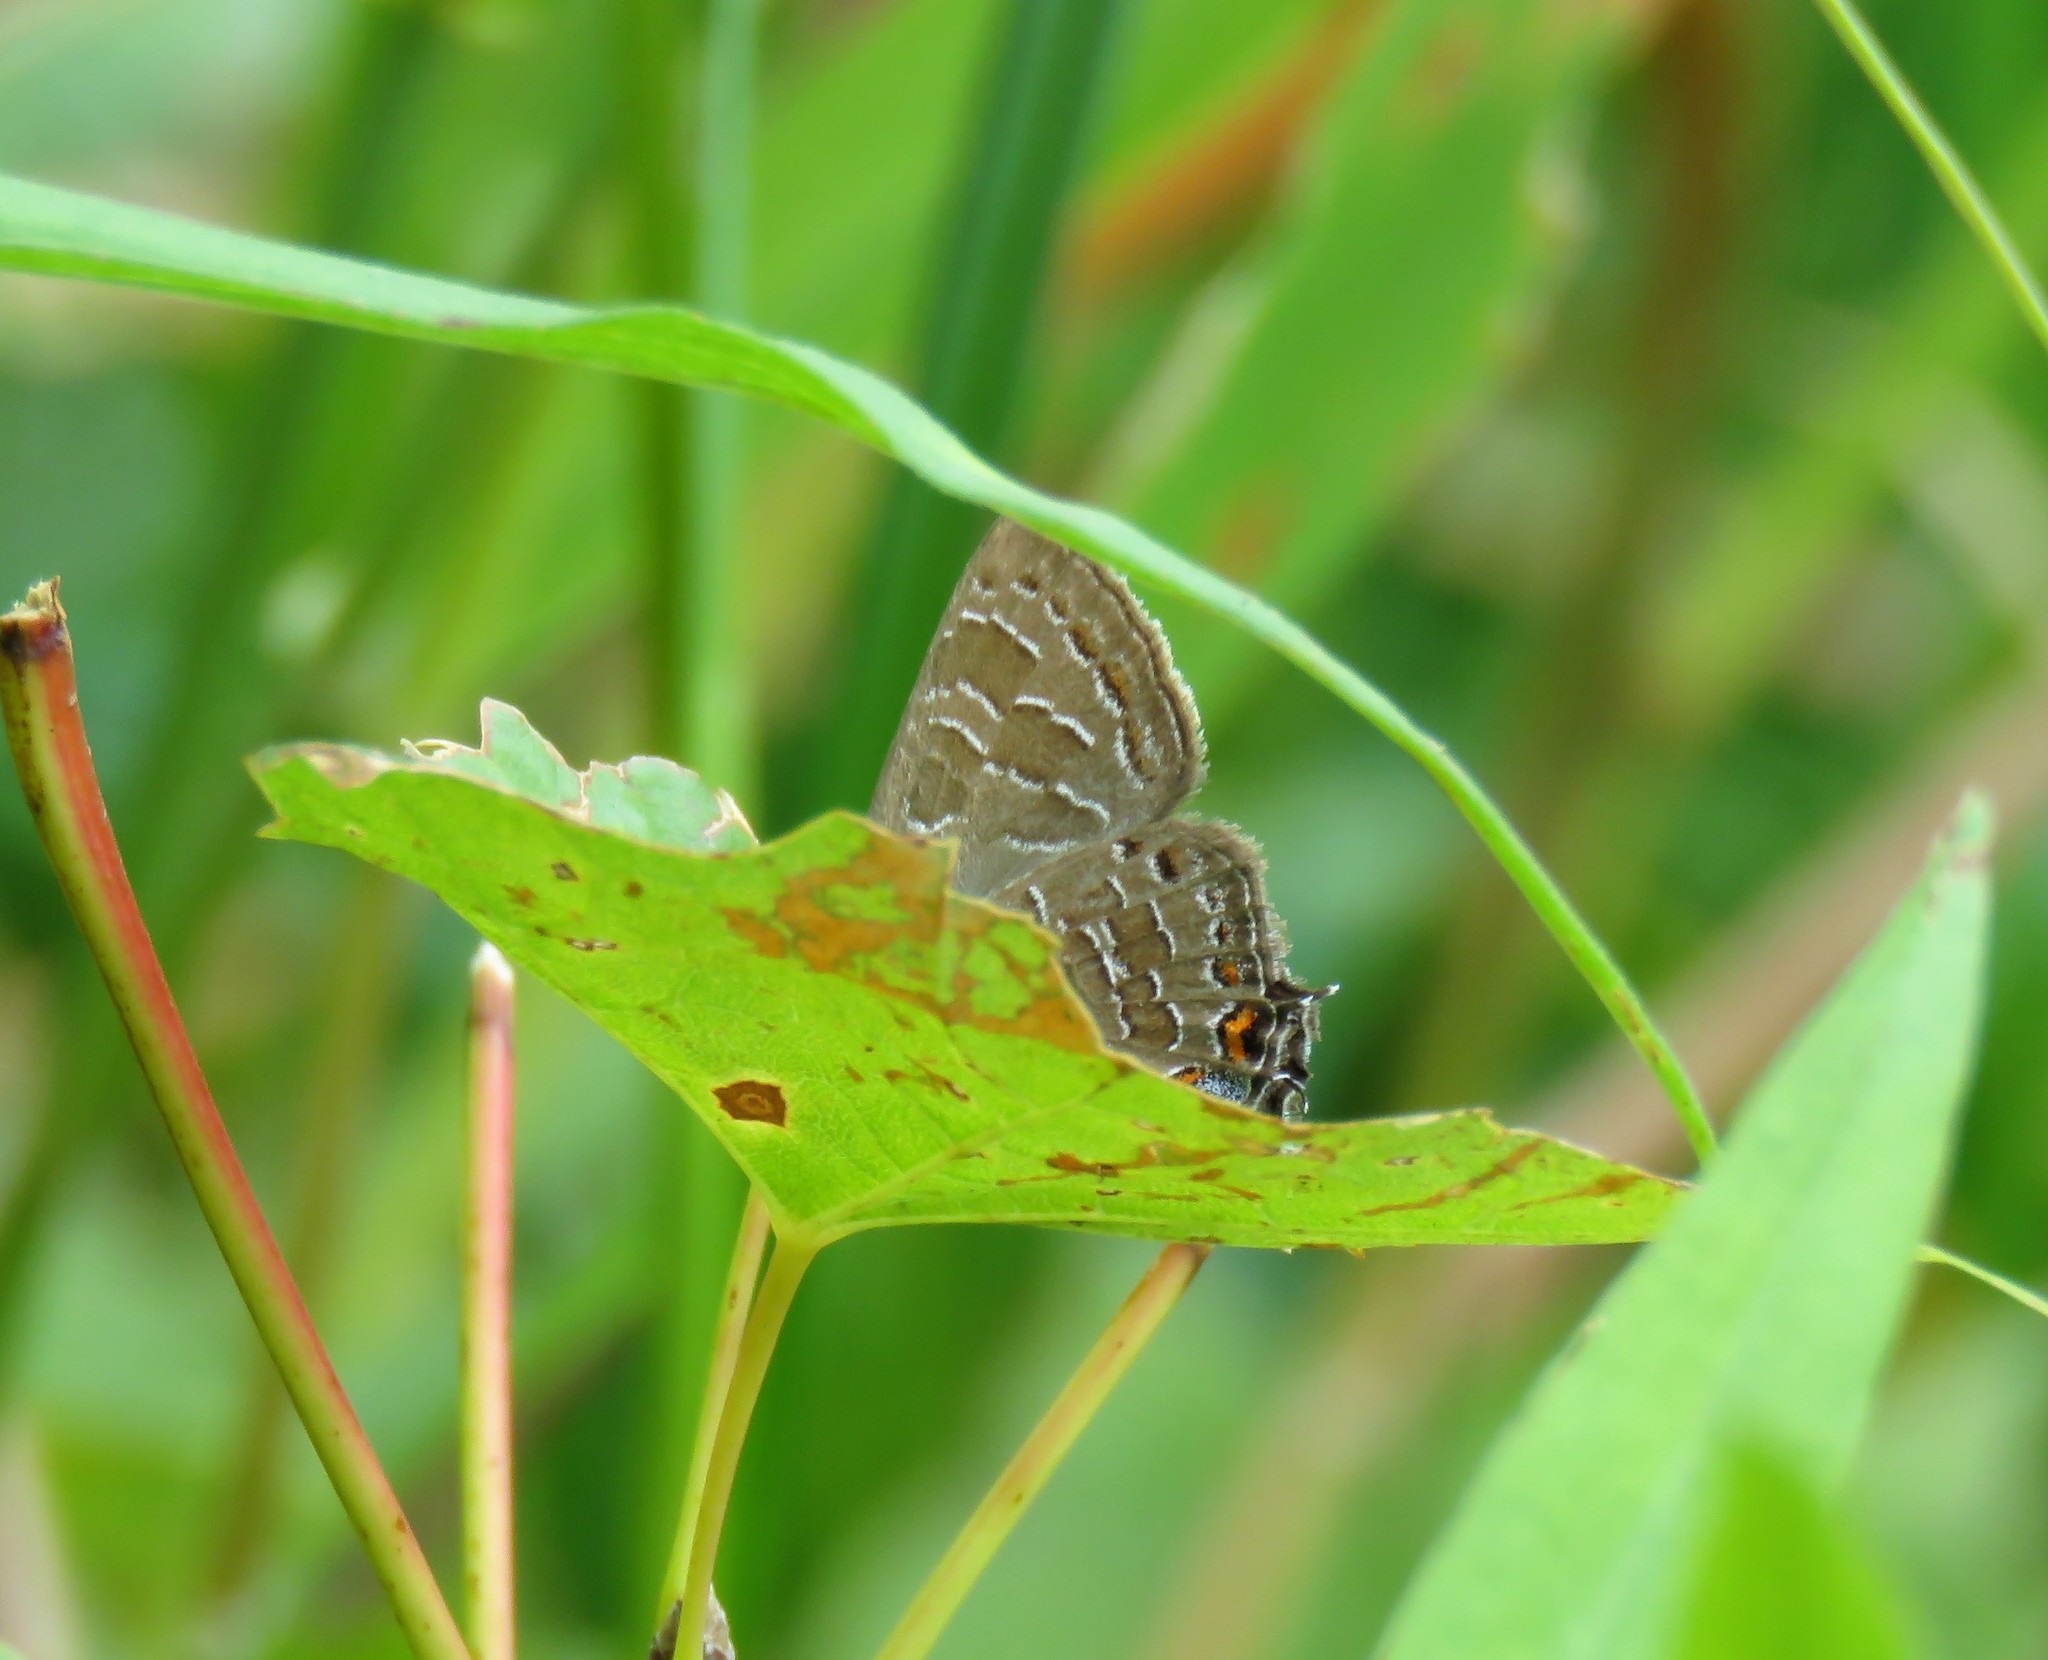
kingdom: Animalia
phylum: Arthropoda
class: Insecta
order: Lepidoptera
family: Lycaenidae
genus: Satyrium
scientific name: Satyrium liparops
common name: Striped hairstreak
